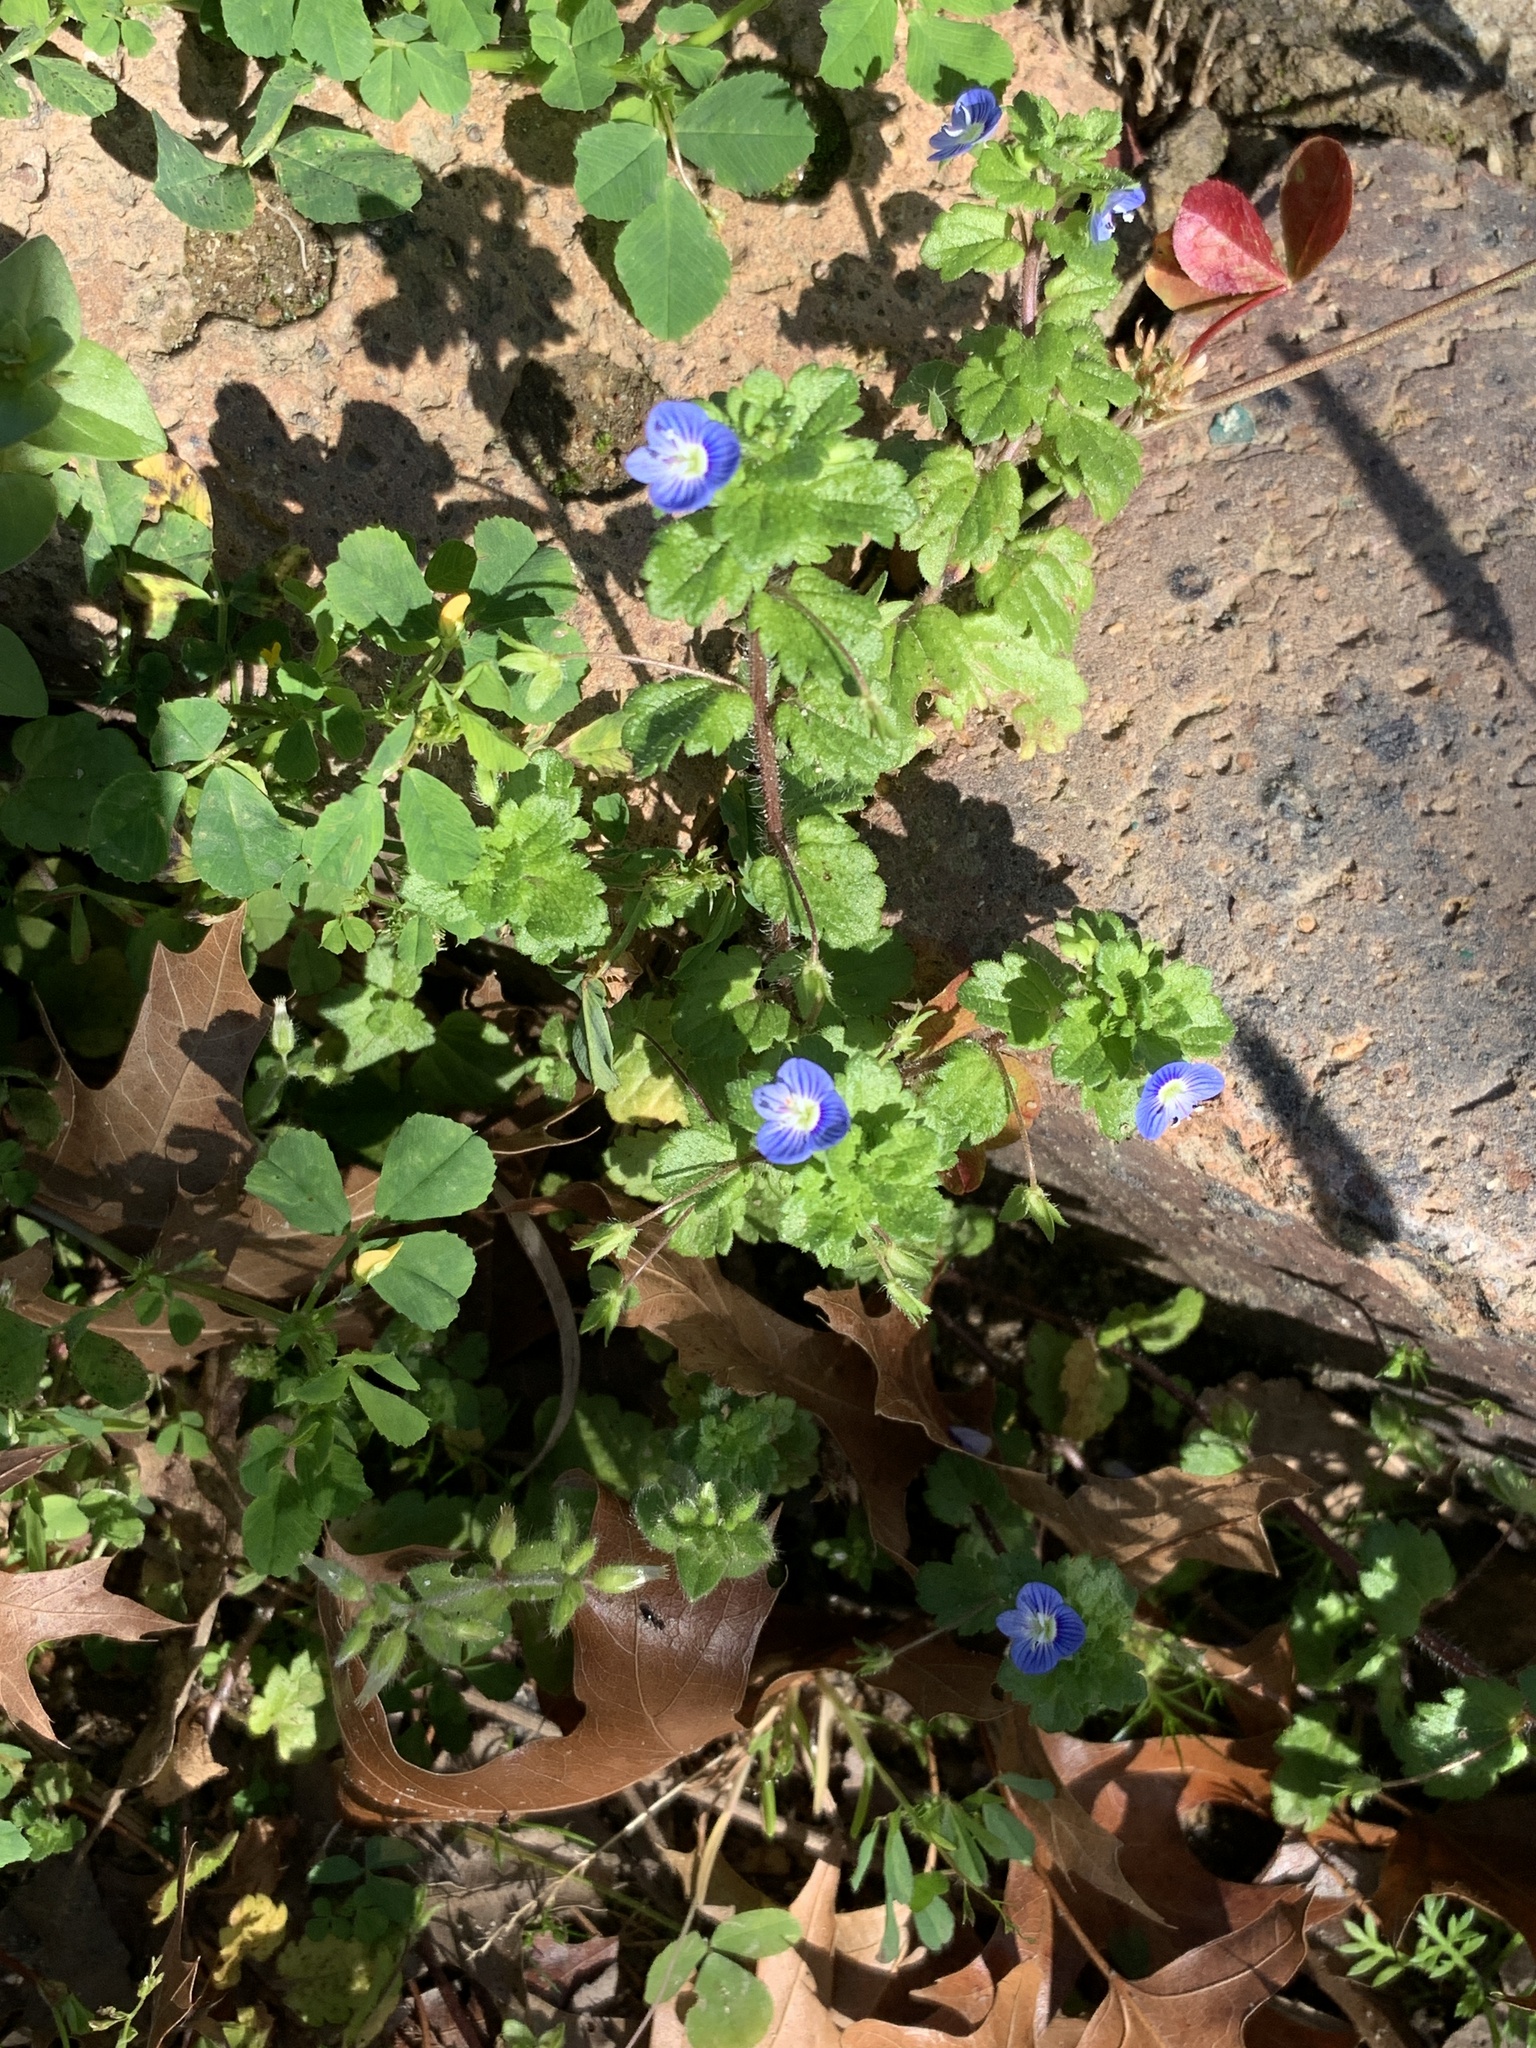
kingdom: Plantae
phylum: Tracheophyta
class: Magnoliopsida
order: Lamiales
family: Plantaginaceae
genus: Veronica
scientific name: Veronica persica
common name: Common field-speedwell
